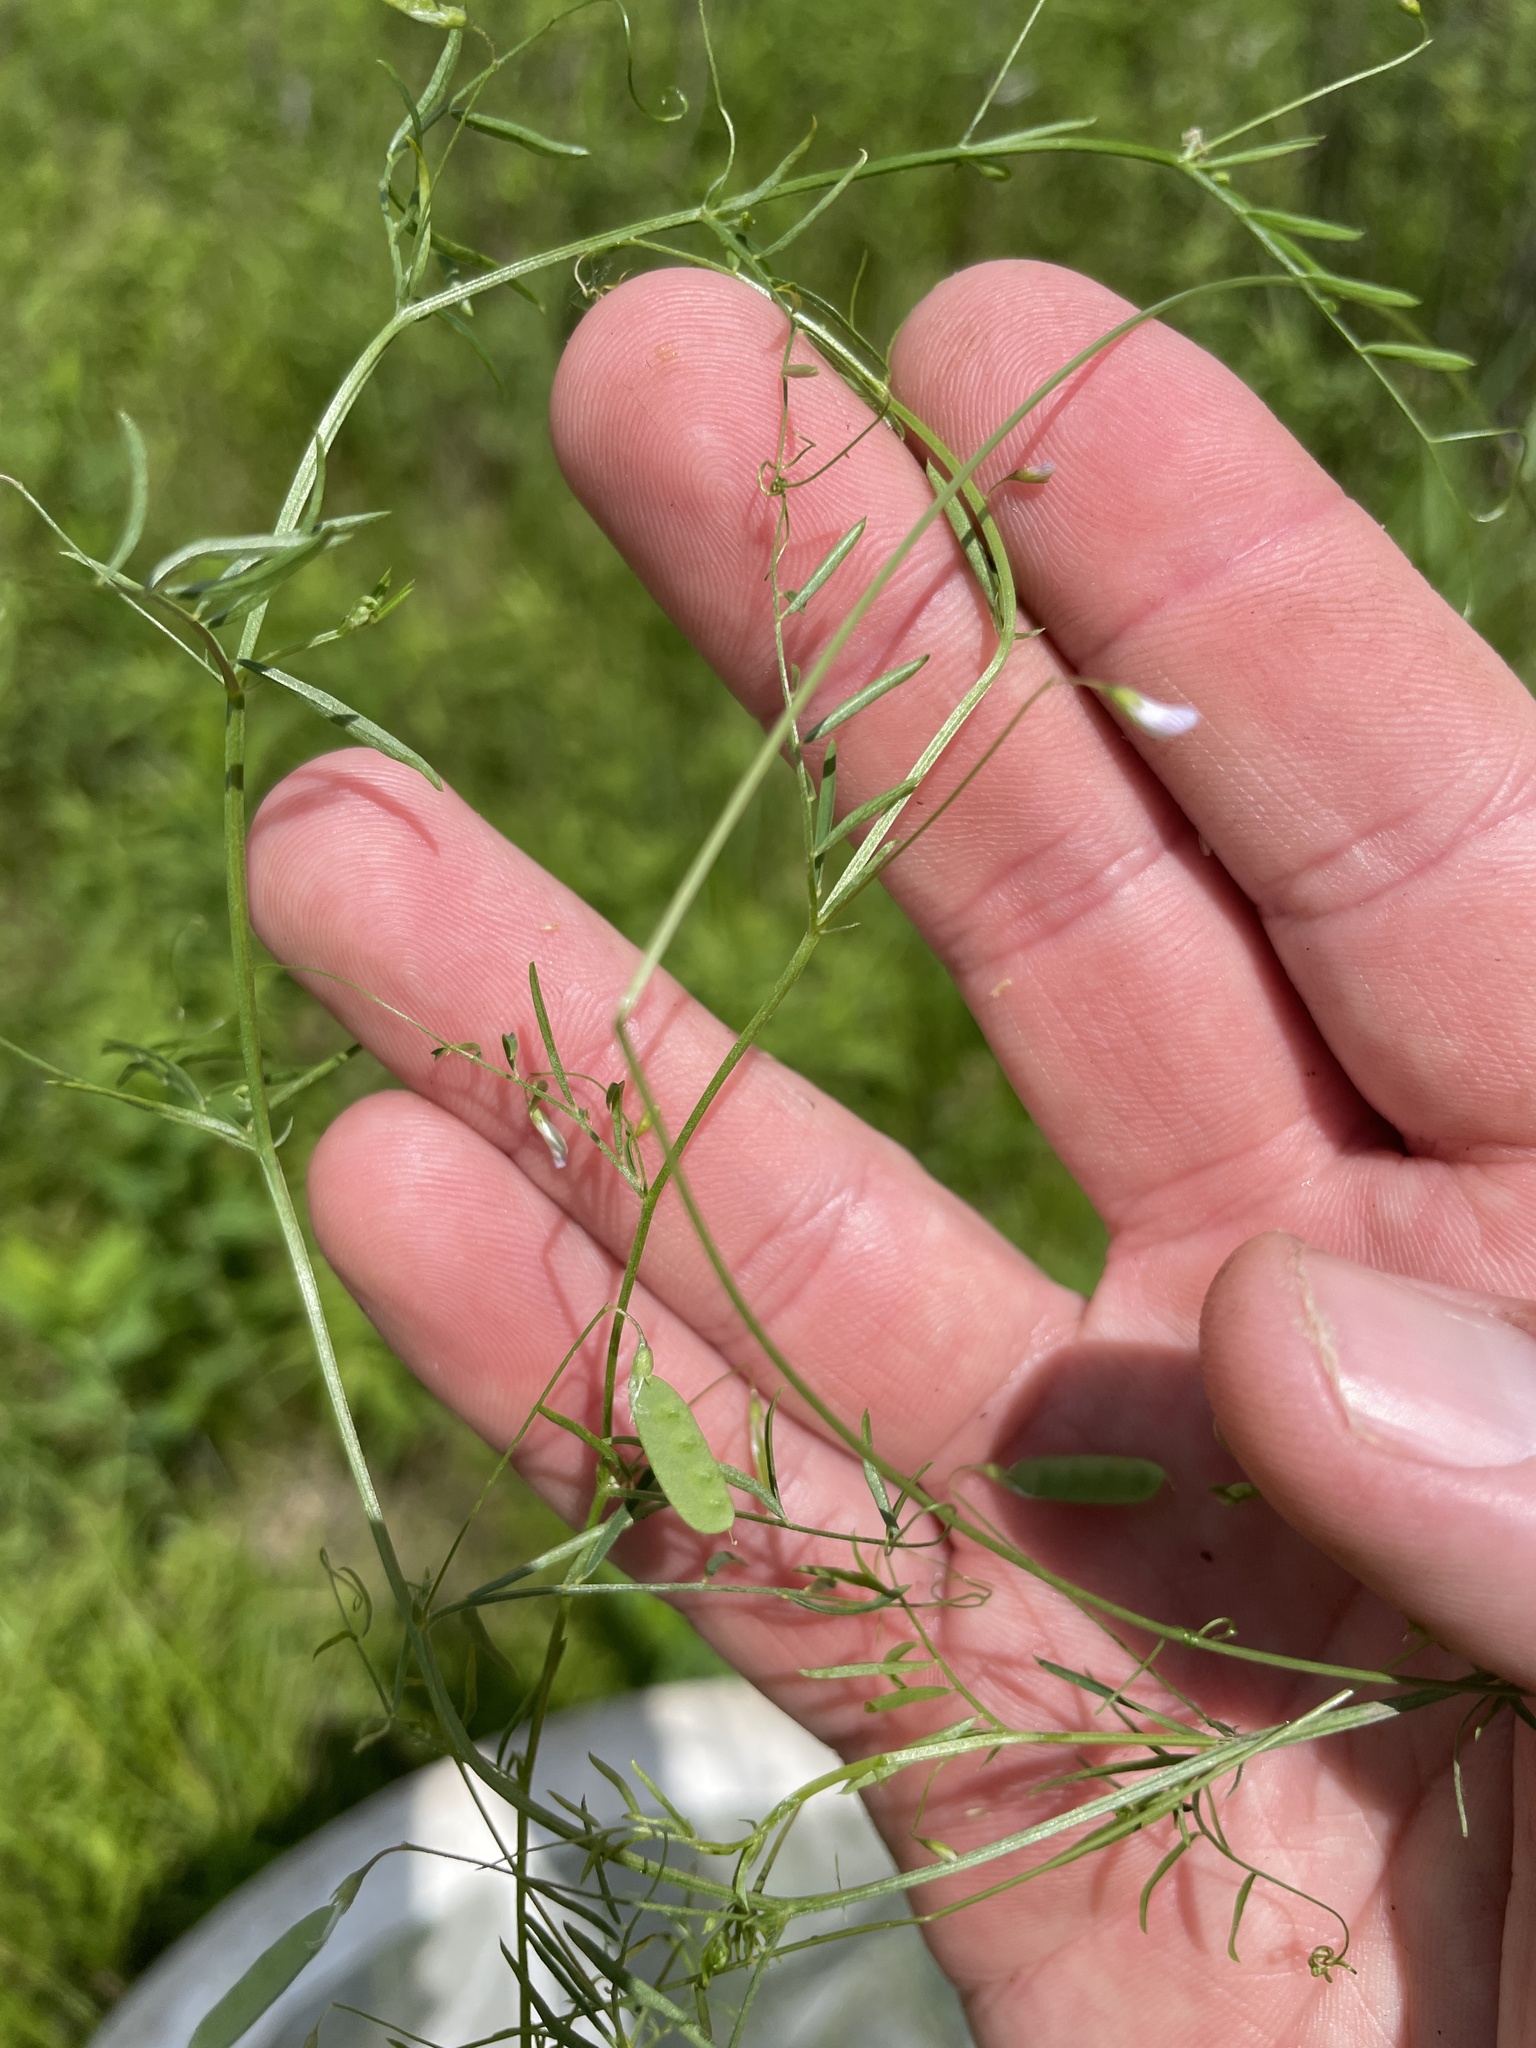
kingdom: Plantae
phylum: Tracheophyta
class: Magnoliopsida
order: Fabales
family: Fabaceae
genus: Vicia
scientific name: Vicia tetrasperma
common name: Smooth tare
